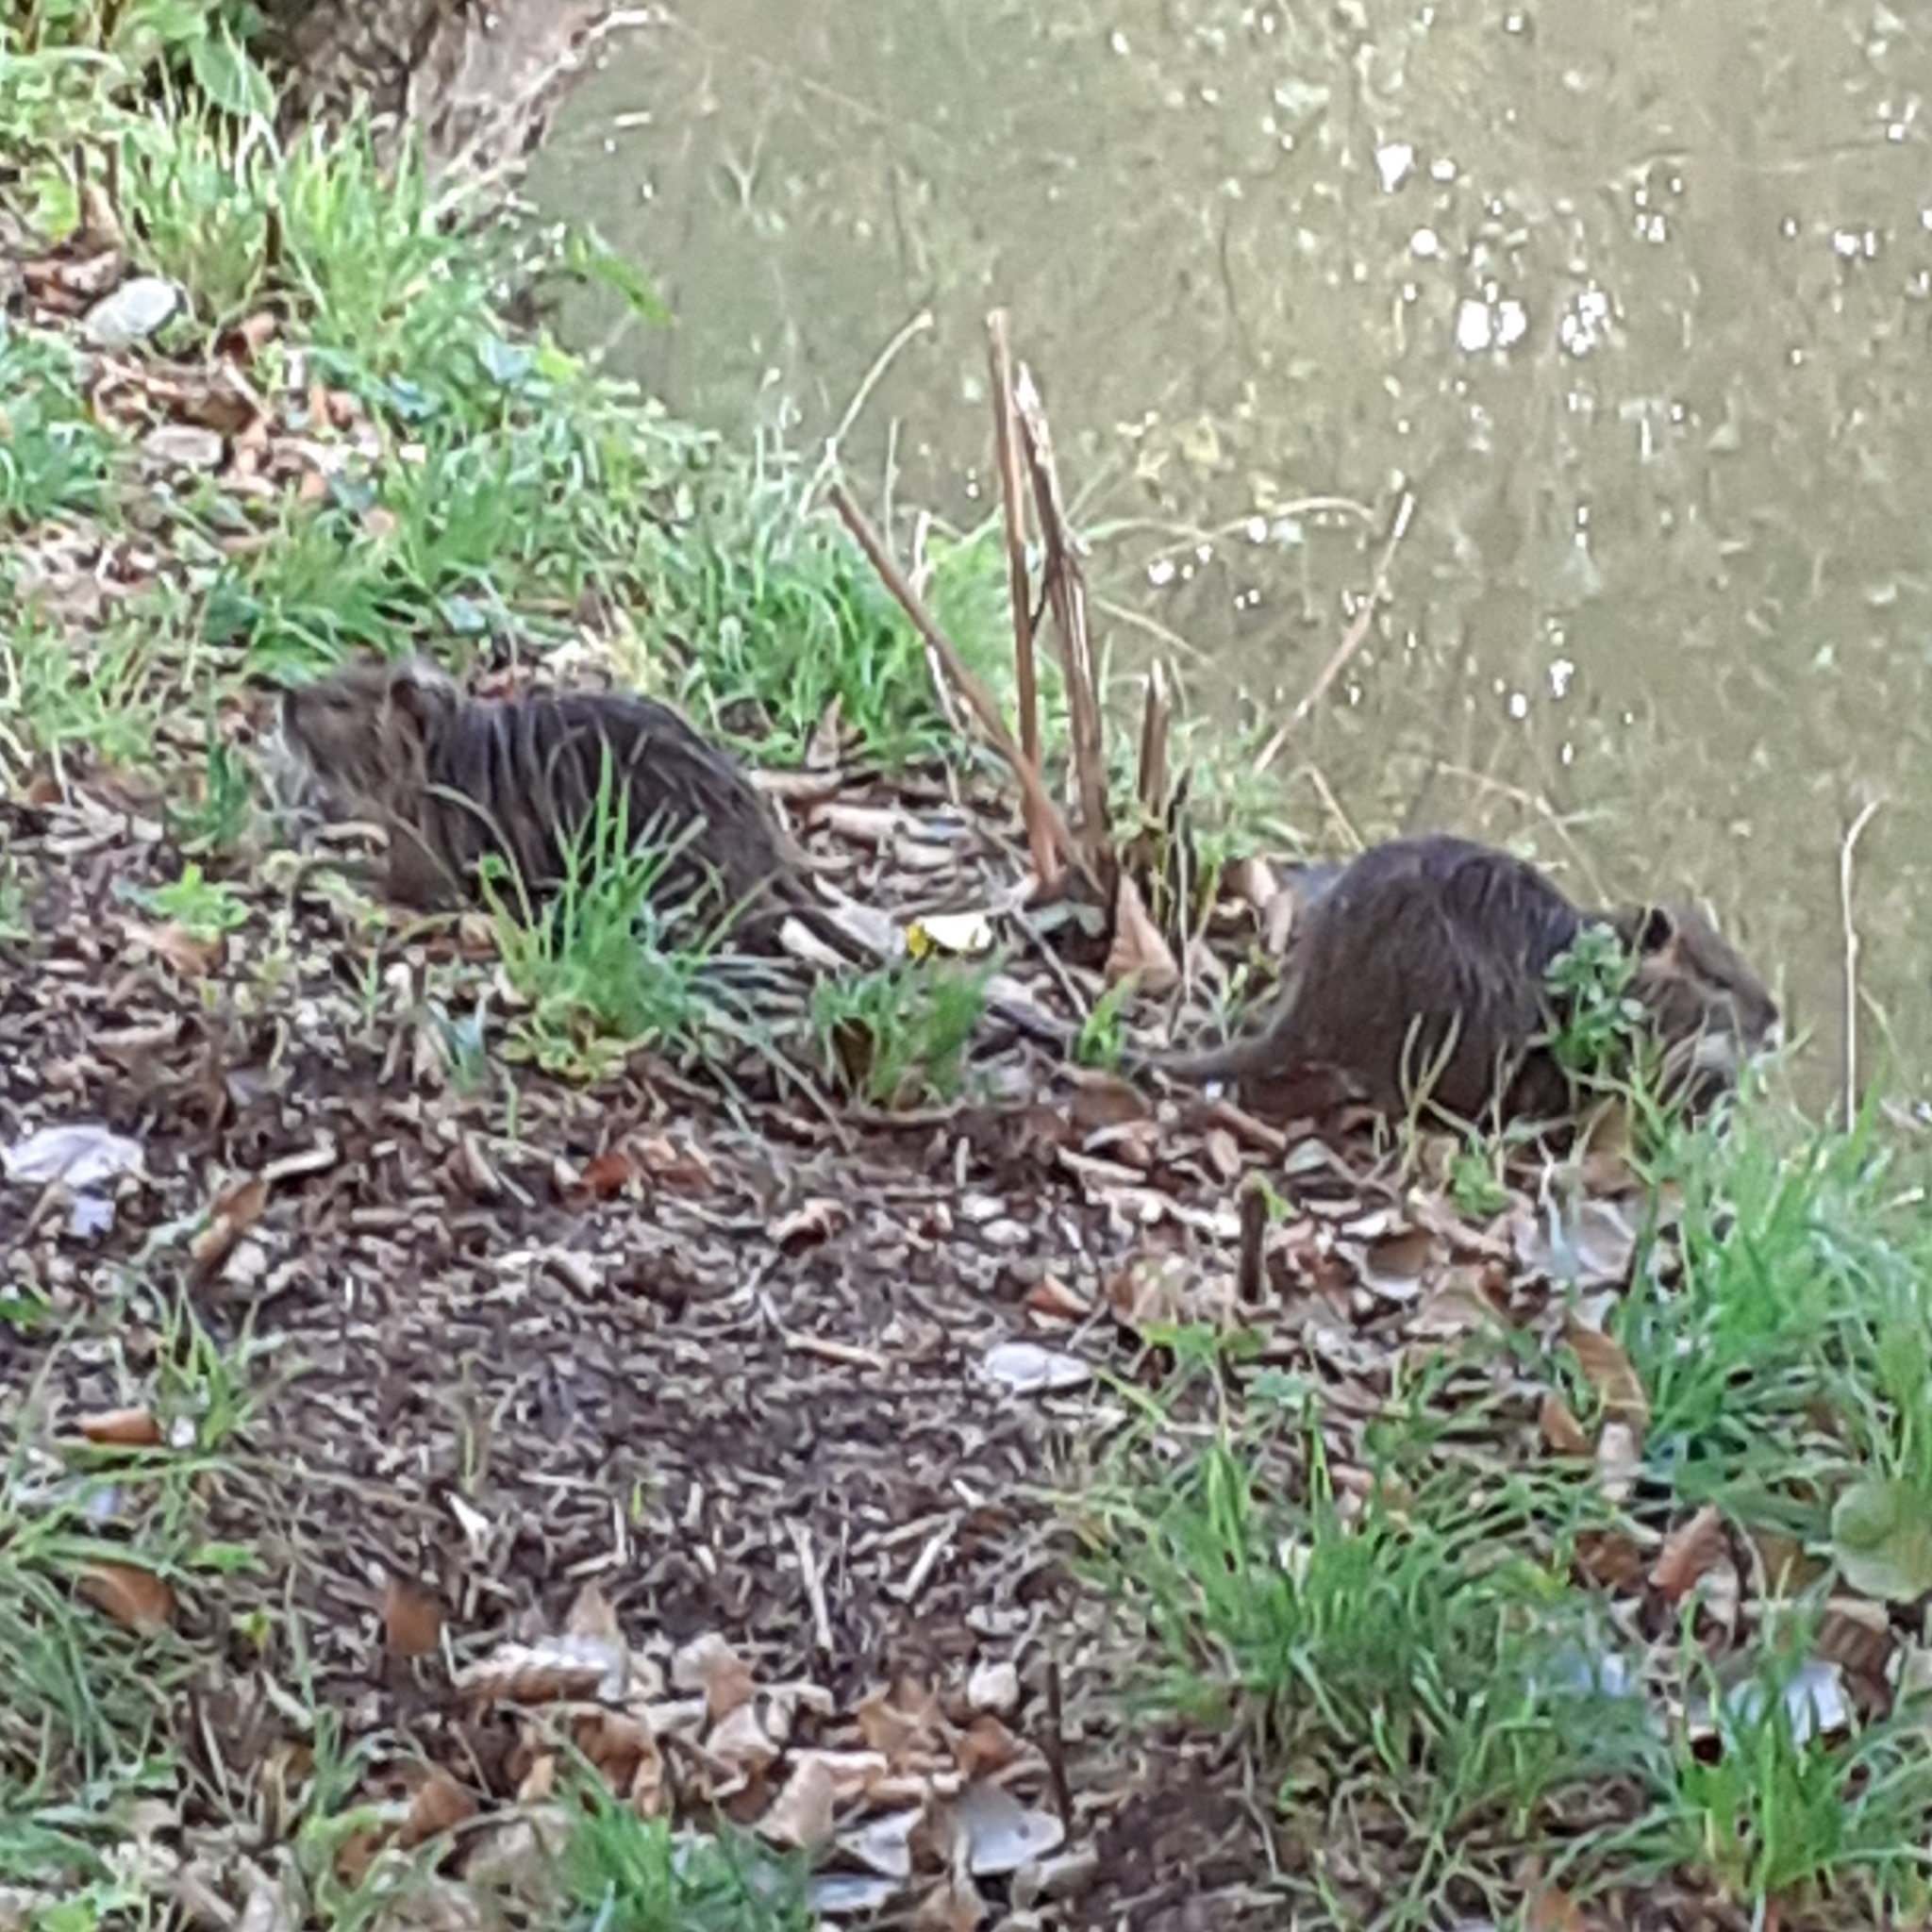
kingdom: Animalia
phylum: Chordata
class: Mammalia
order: Rodentia
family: Myocastoridae
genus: Myocastor
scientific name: Myocastor coypus
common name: Coypu
